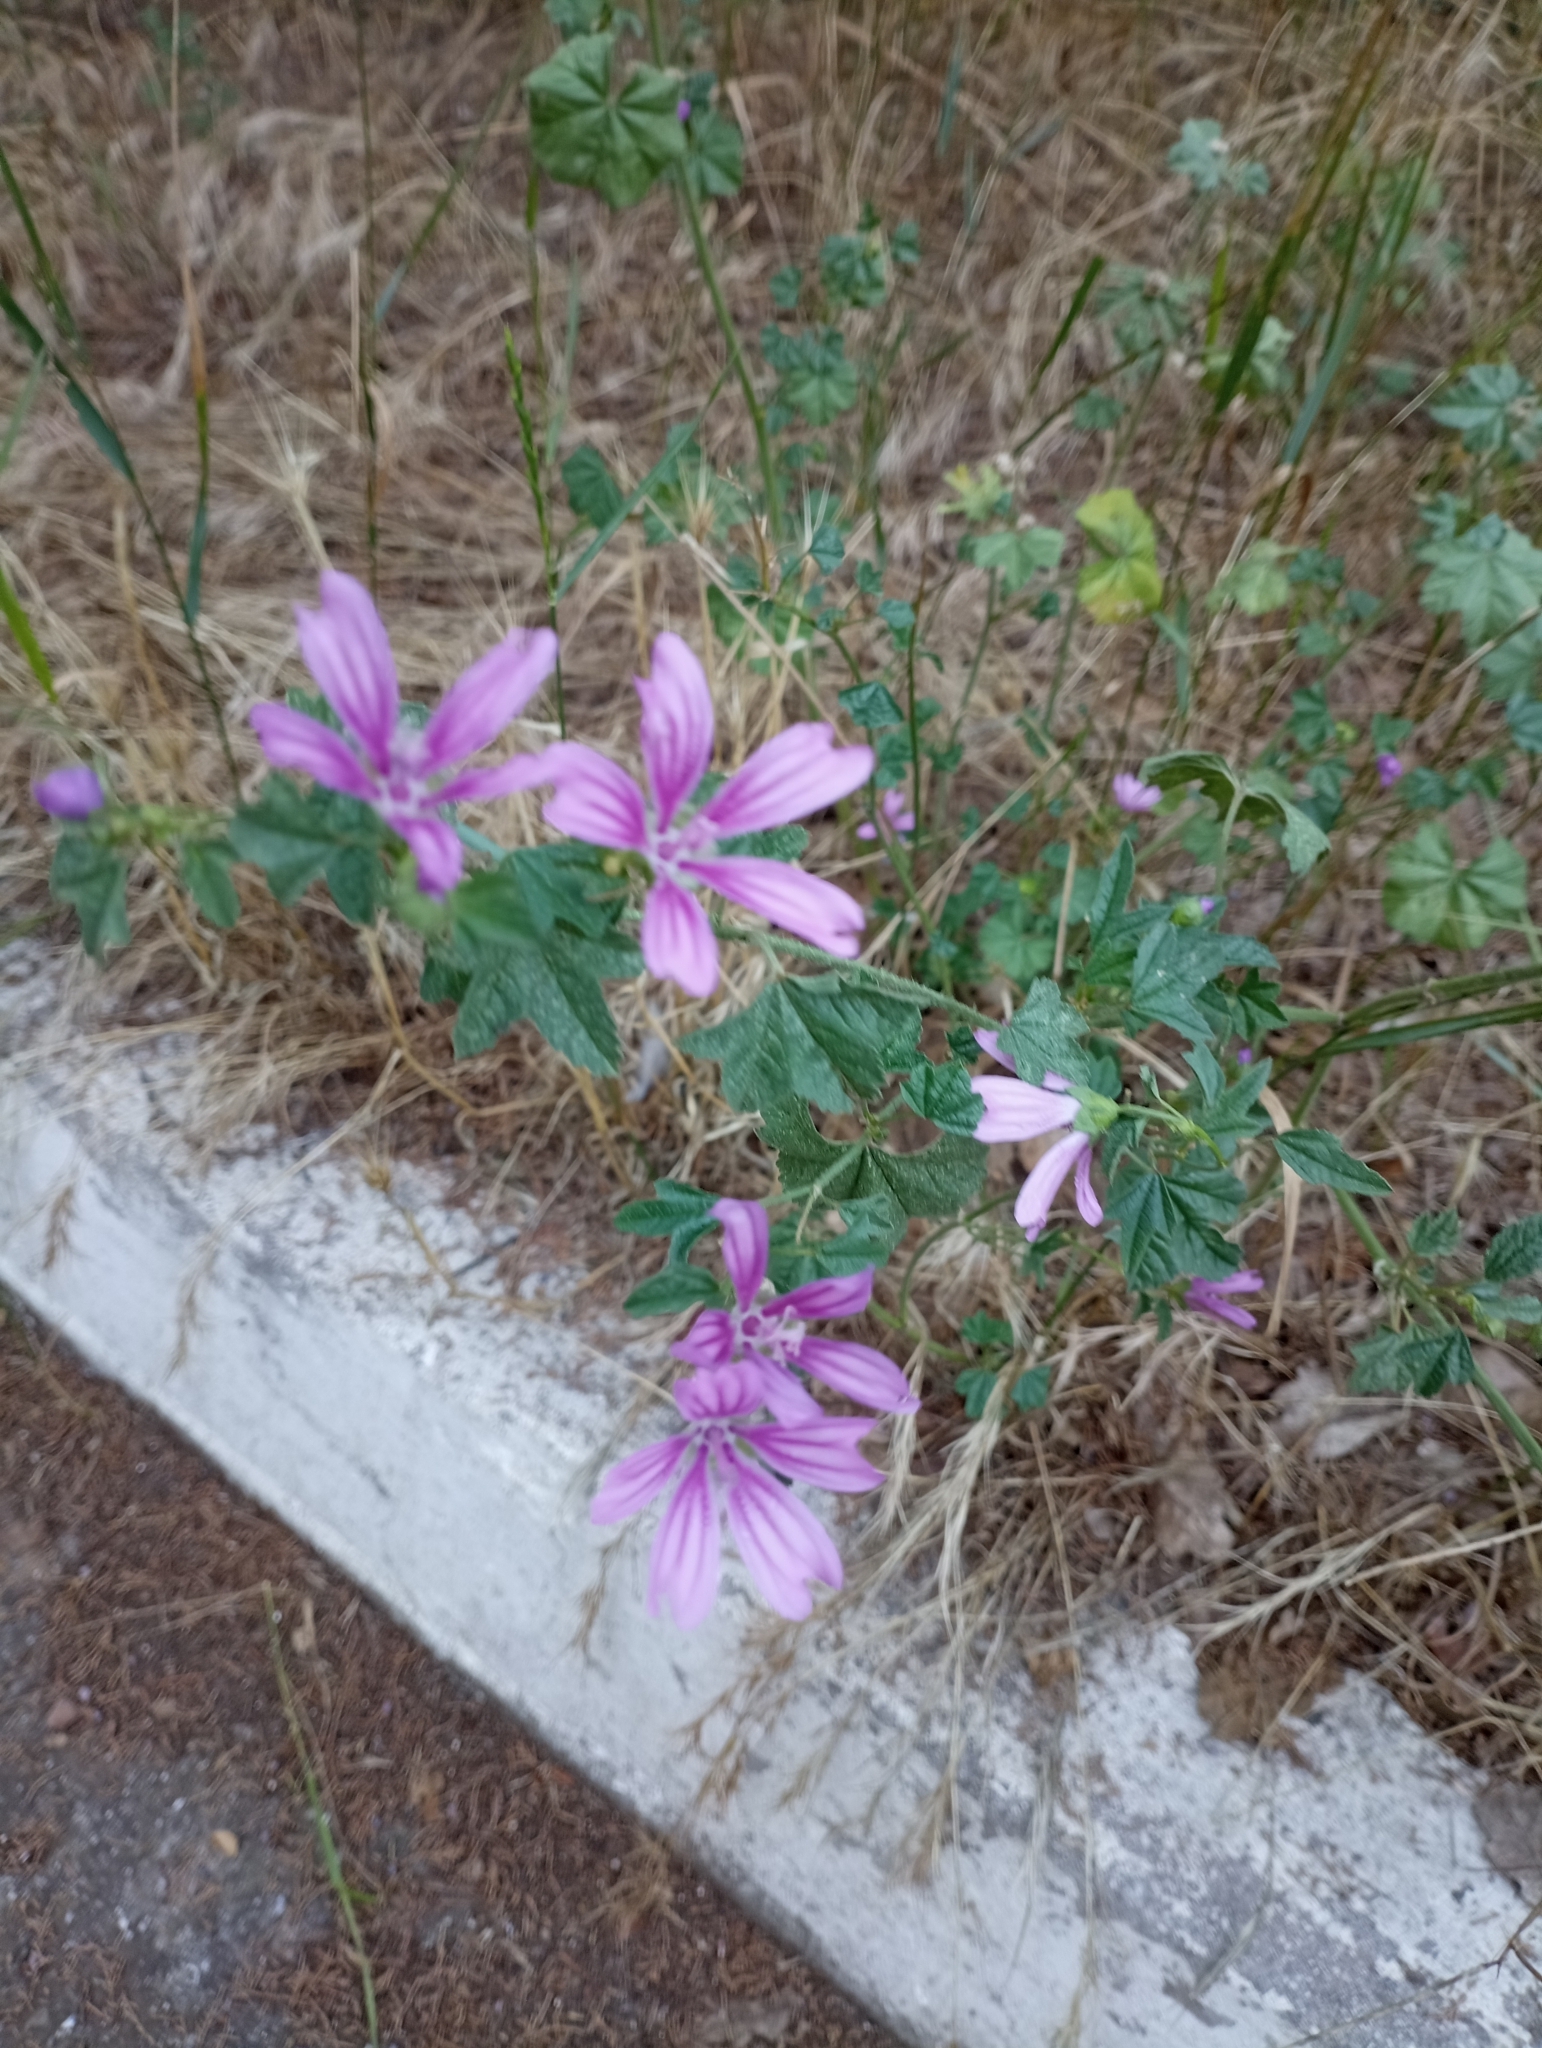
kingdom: Plantae
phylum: Tracheophyta
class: Magnoliopsida
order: Malvales
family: Malvaceae
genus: Malva
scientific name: Malva sylvestris
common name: Common mallow
